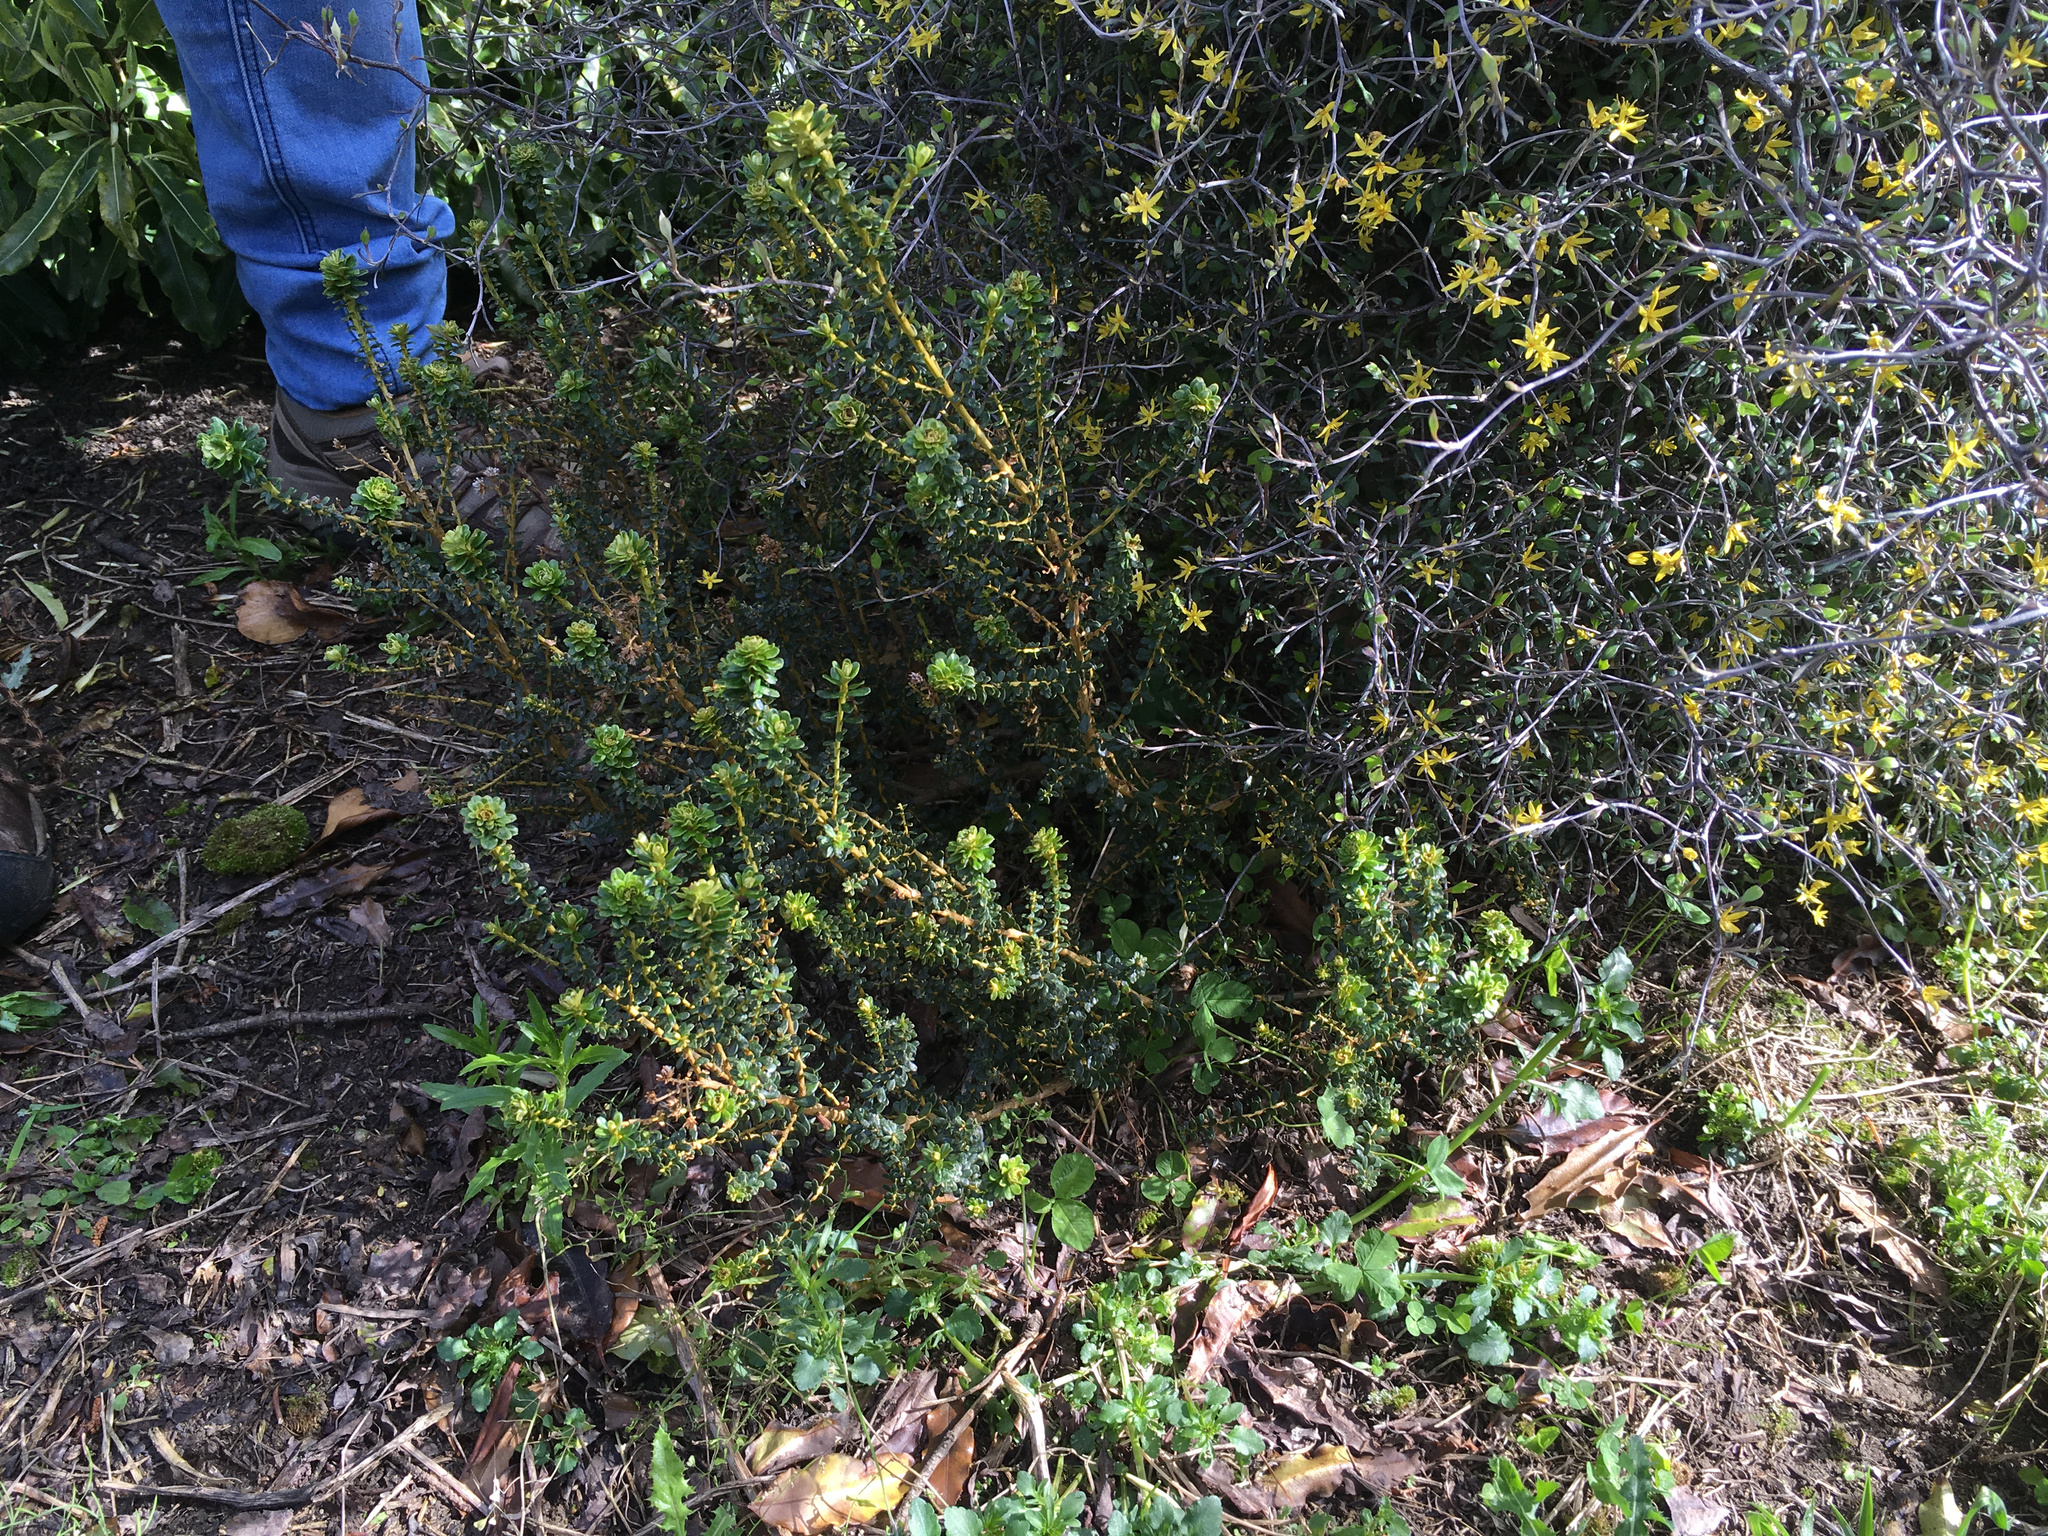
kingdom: Plantae
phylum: Tracheophyta
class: Magnoliopsida
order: Asterales
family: Asteraceae
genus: Ozothamnus
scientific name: Ozothamnus leptophyllus
